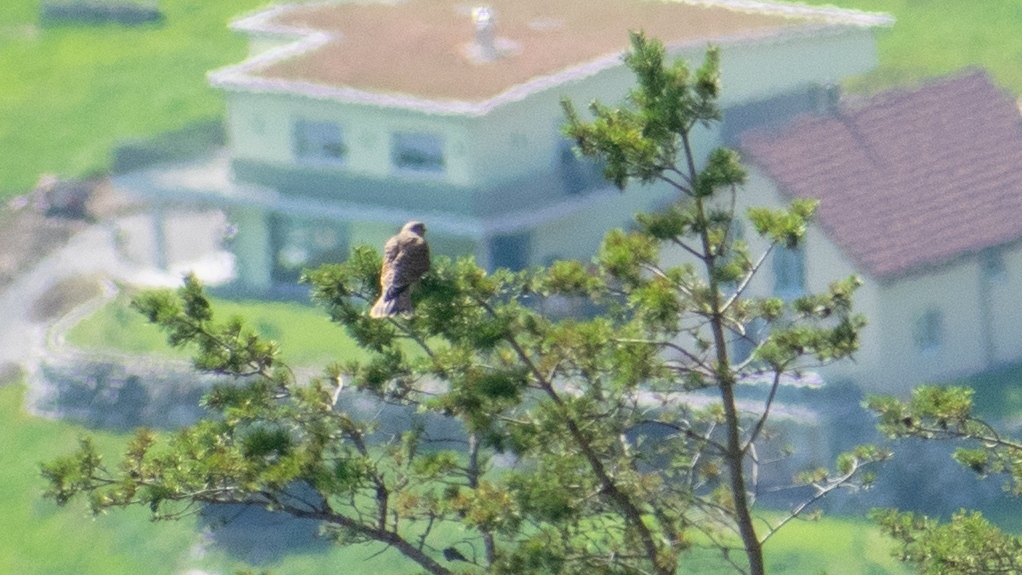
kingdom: Animalia
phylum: Chordata
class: Aves
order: Falconiformes
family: Falconidae
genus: Falco
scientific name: Falco tinnunculus
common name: Common kestrel
